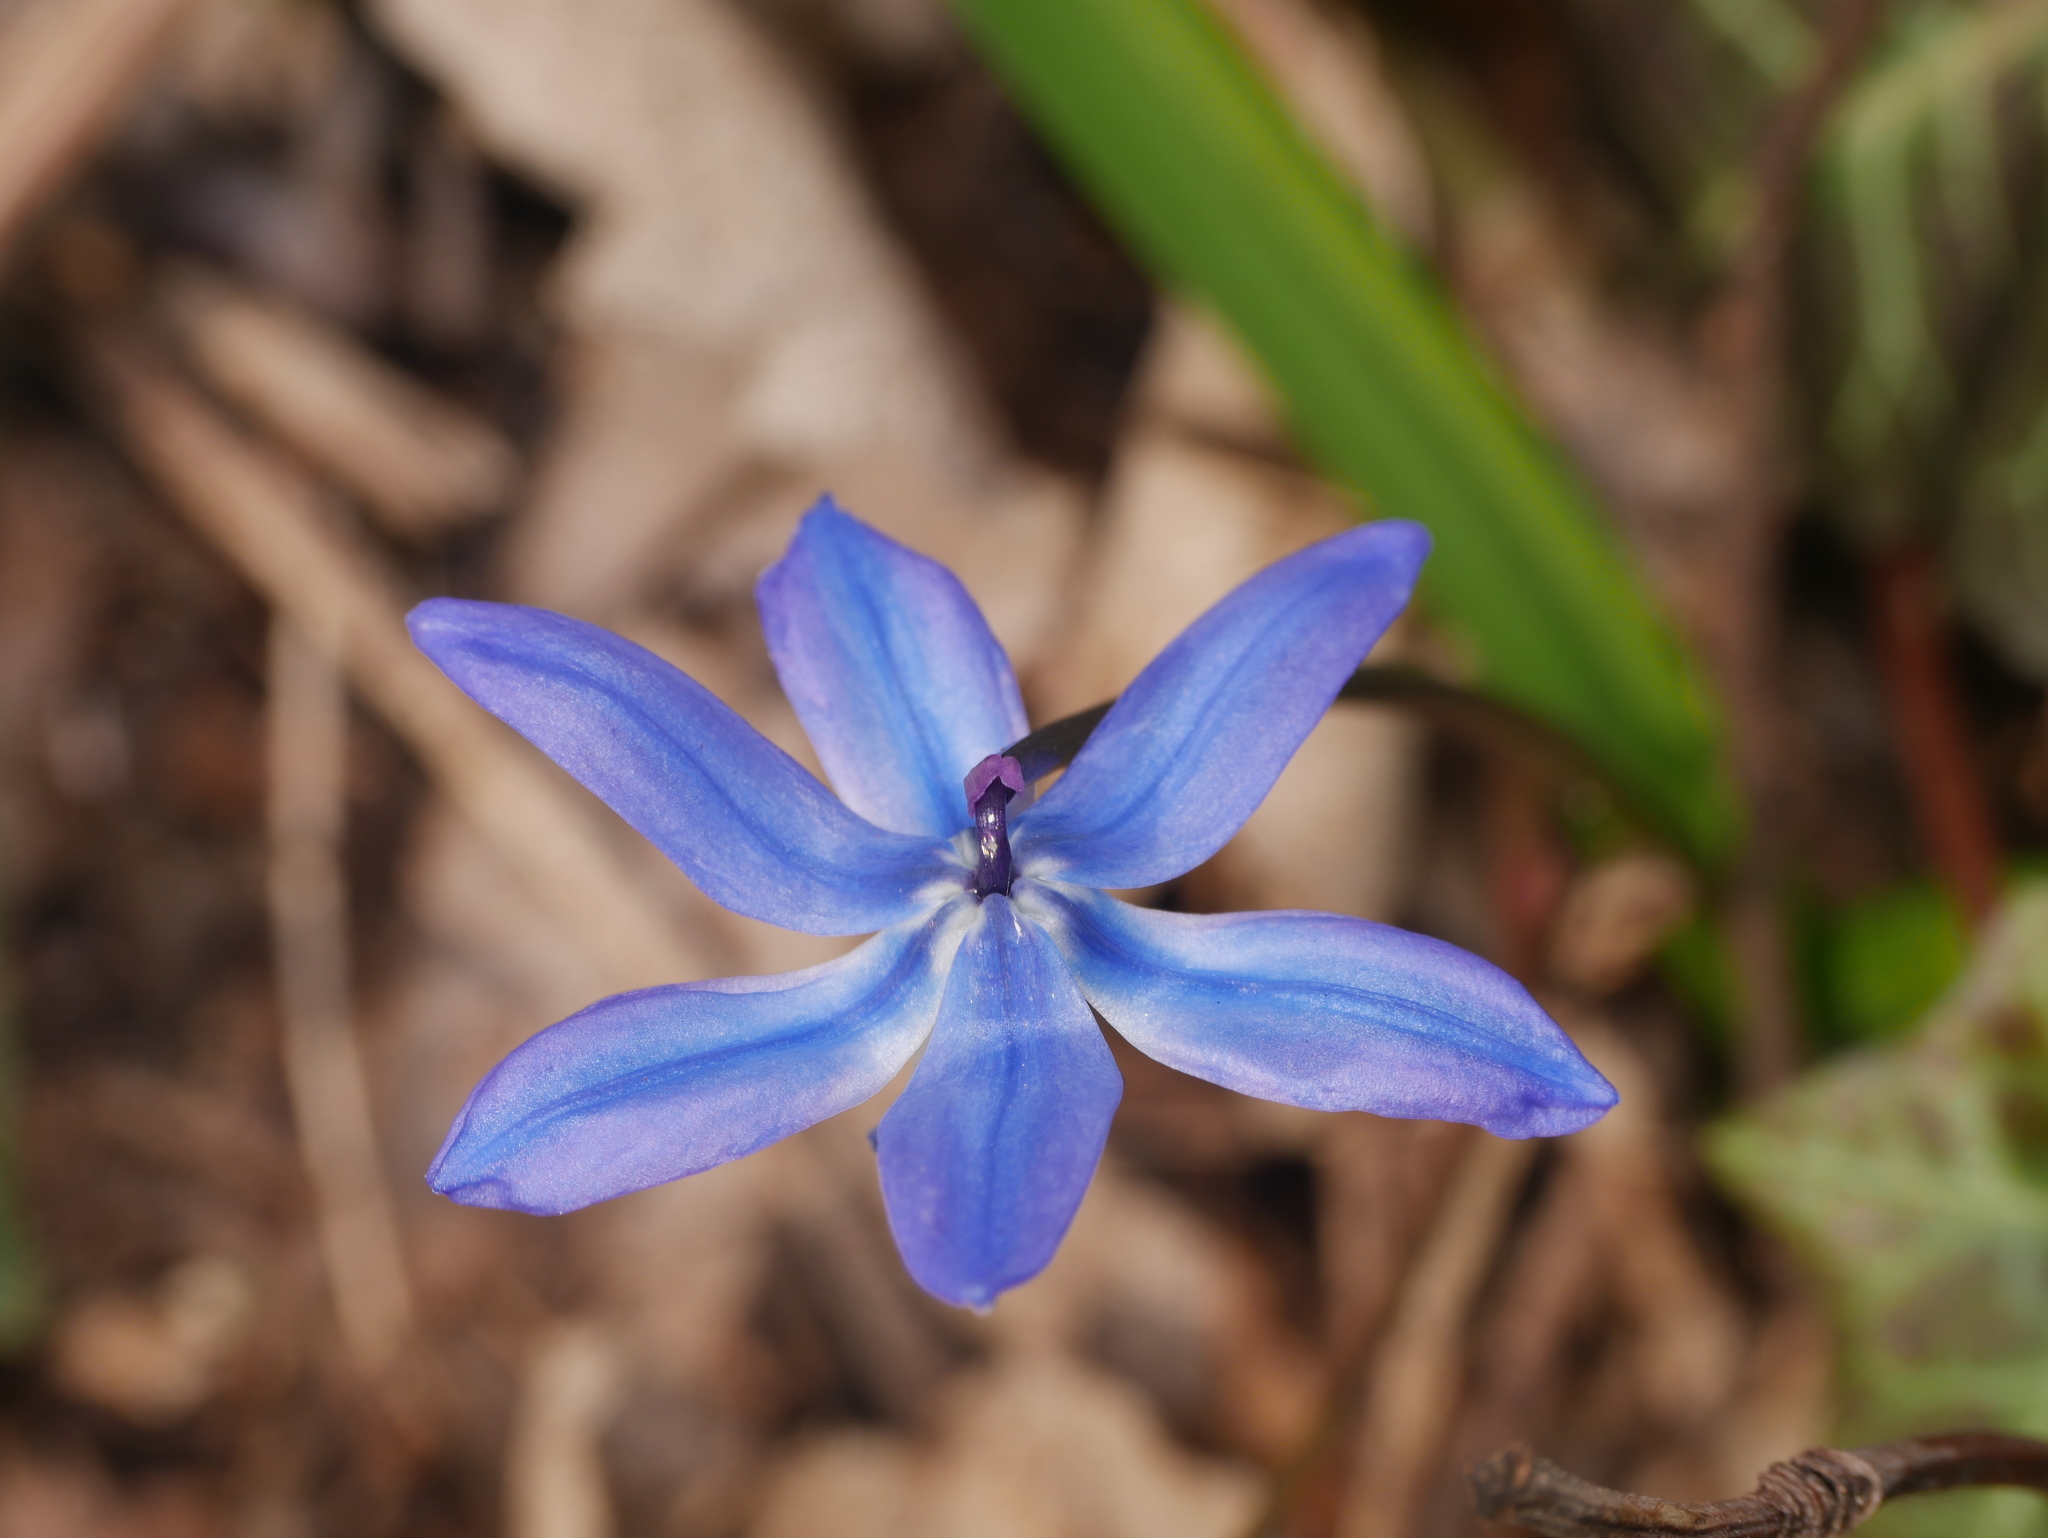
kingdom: Plantae
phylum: Tracheophyta
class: Liliopsida
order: Asparagales
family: Asparagaceae
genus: Scilla
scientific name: Scilla siberica
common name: Siberian squill
